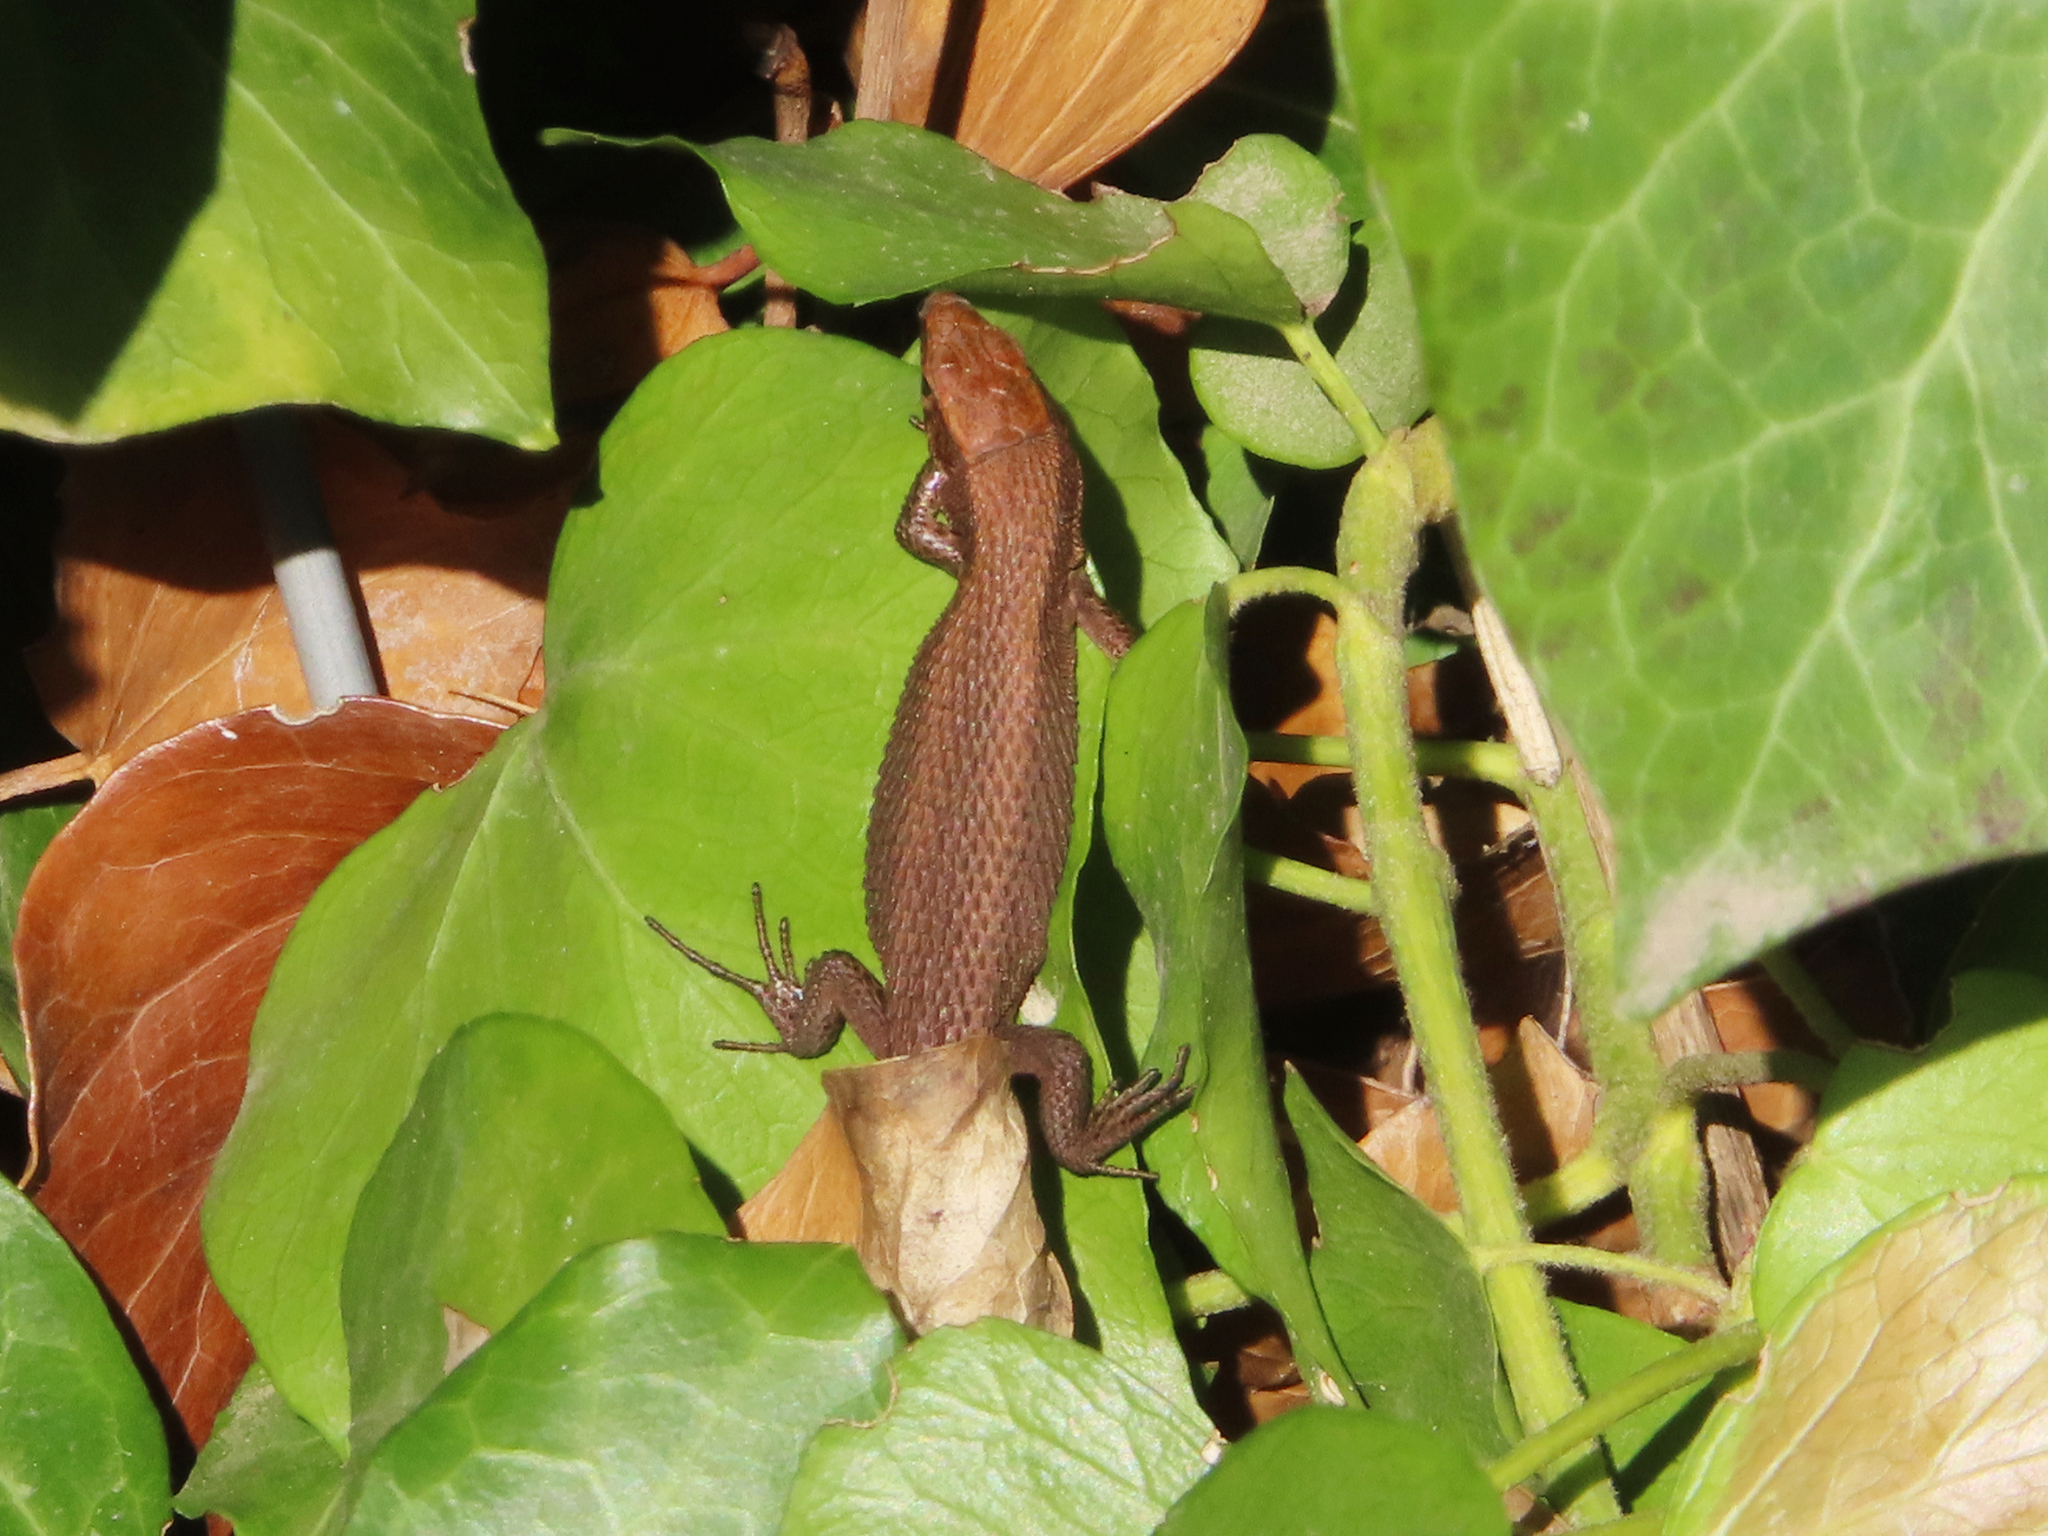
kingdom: Animalia
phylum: Chordata
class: Squamata
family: Lacertidae
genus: Algyroides
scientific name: Algyroides moreoticus
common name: Greek algyroides
